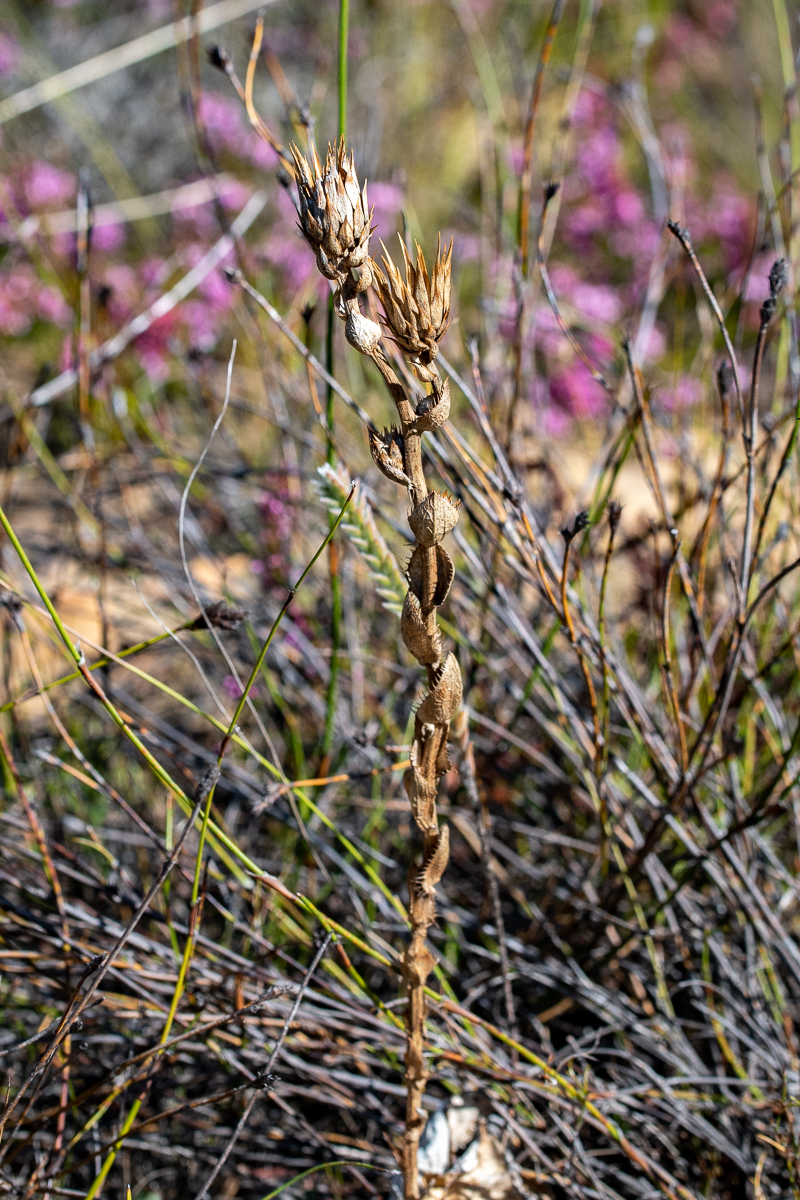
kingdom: Plantae
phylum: Tracheophyta
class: Magnoliopsida
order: Asterales
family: Asteraceae
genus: Berkheya
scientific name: Berkheya herbacea
